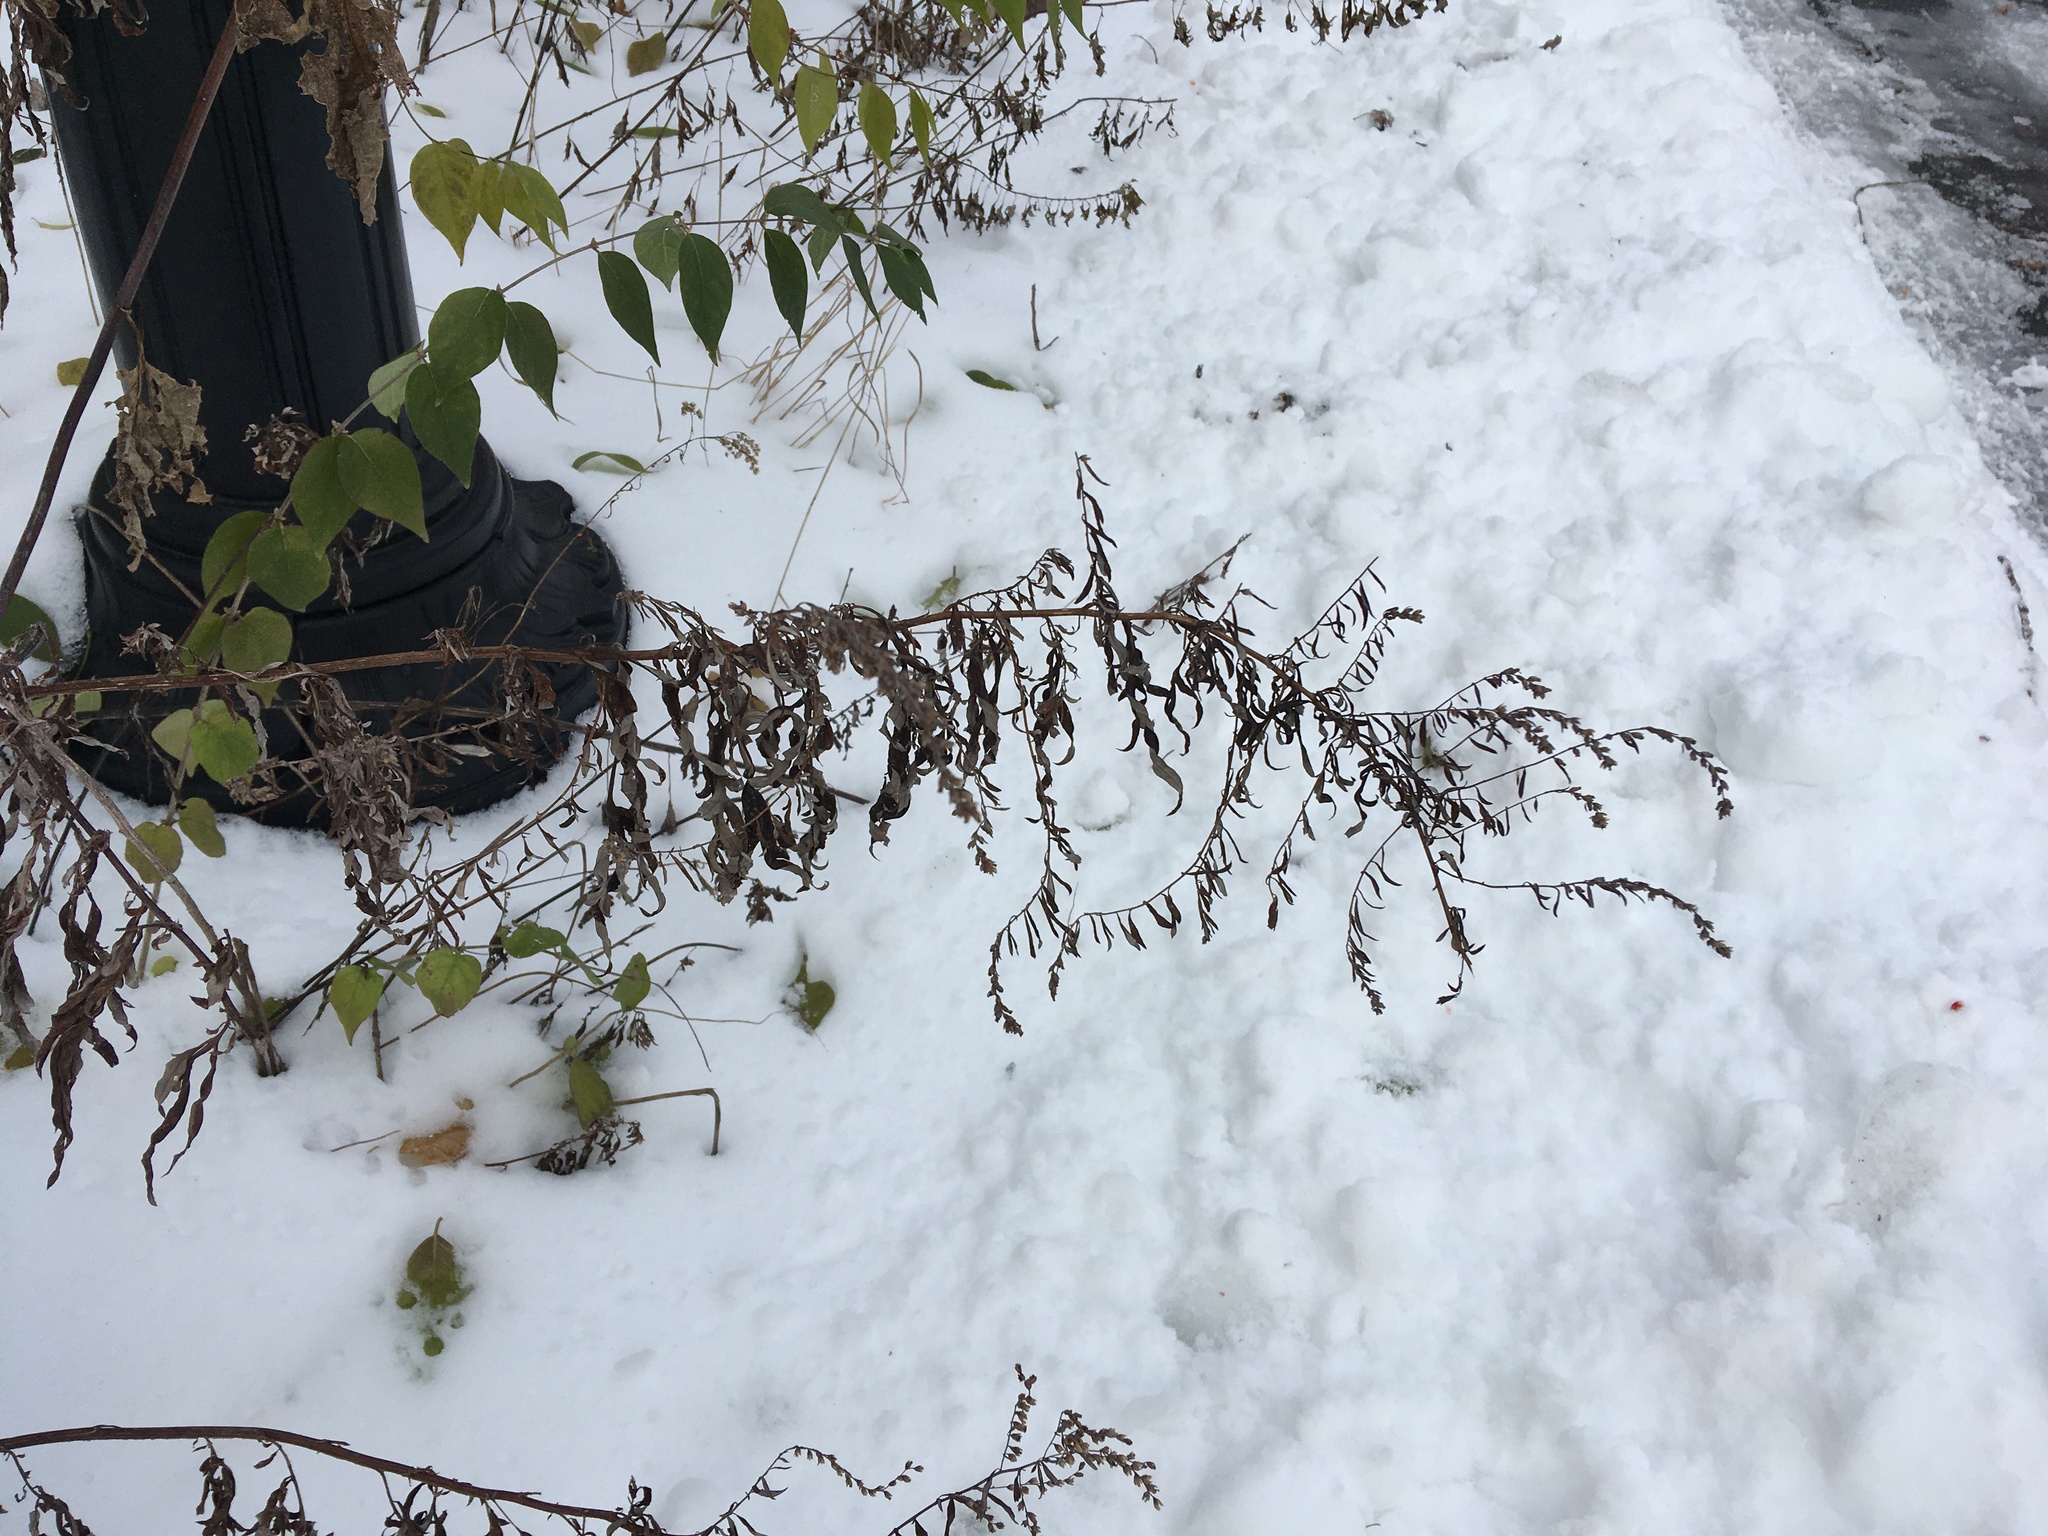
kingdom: Plantae
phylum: Tracheophyta
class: Magnoliopsida
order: Asterales
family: Asteraceae
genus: Artemisia
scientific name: Artemisia vulgaris
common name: Mugwort
